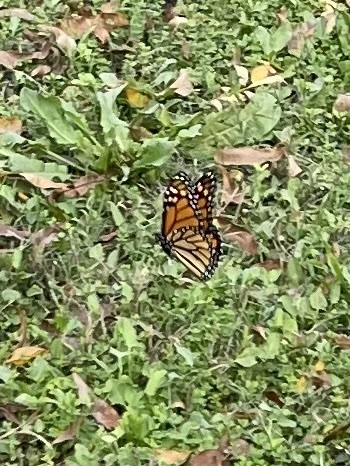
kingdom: Animalia
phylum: Arthropoda
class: Insecta
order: Lepidoptera
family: Nymphalidae
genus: Danaus
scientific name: Danaus plexippus
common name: Monarch
